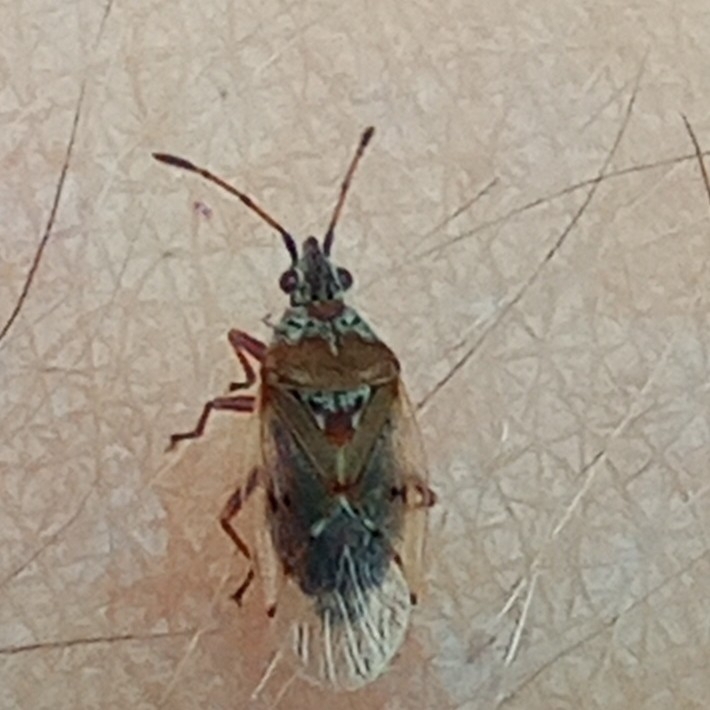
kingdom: Animalia
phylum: Arthropoda
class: Insecta
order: Hemiptera
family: Lygaeidae
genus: Kleidocerys
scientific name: Kleidocerys resedae
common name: Birch catkin bug
